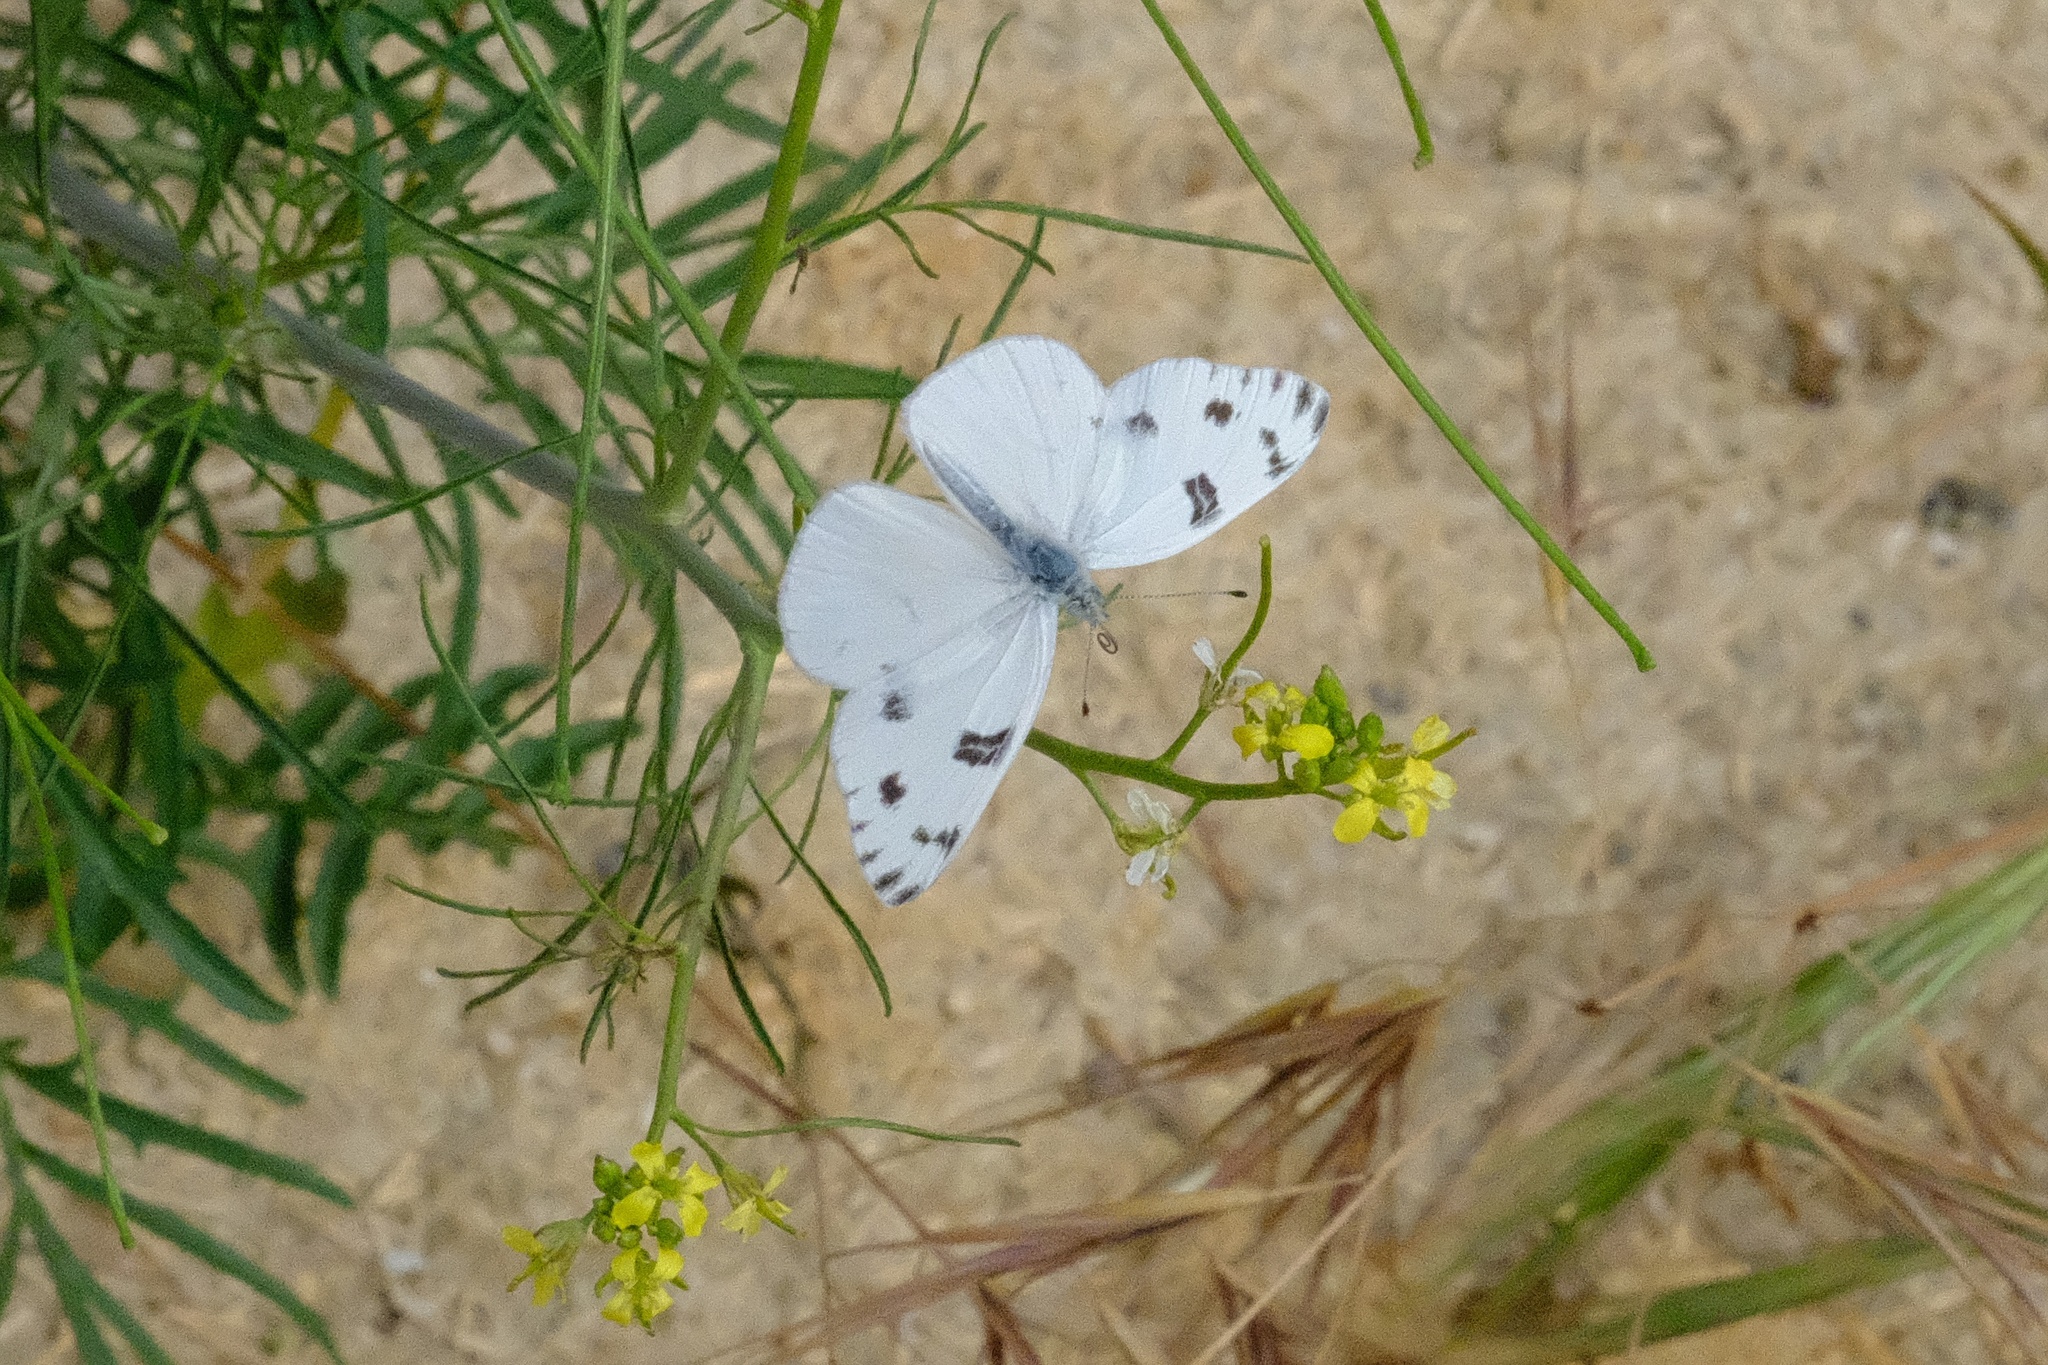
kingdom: Animalia
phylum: Arthropoda
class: Insecta
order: Lepidoptera
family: Pieridae
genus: Pontia
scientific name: Pontia protodice
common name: Checkered white
